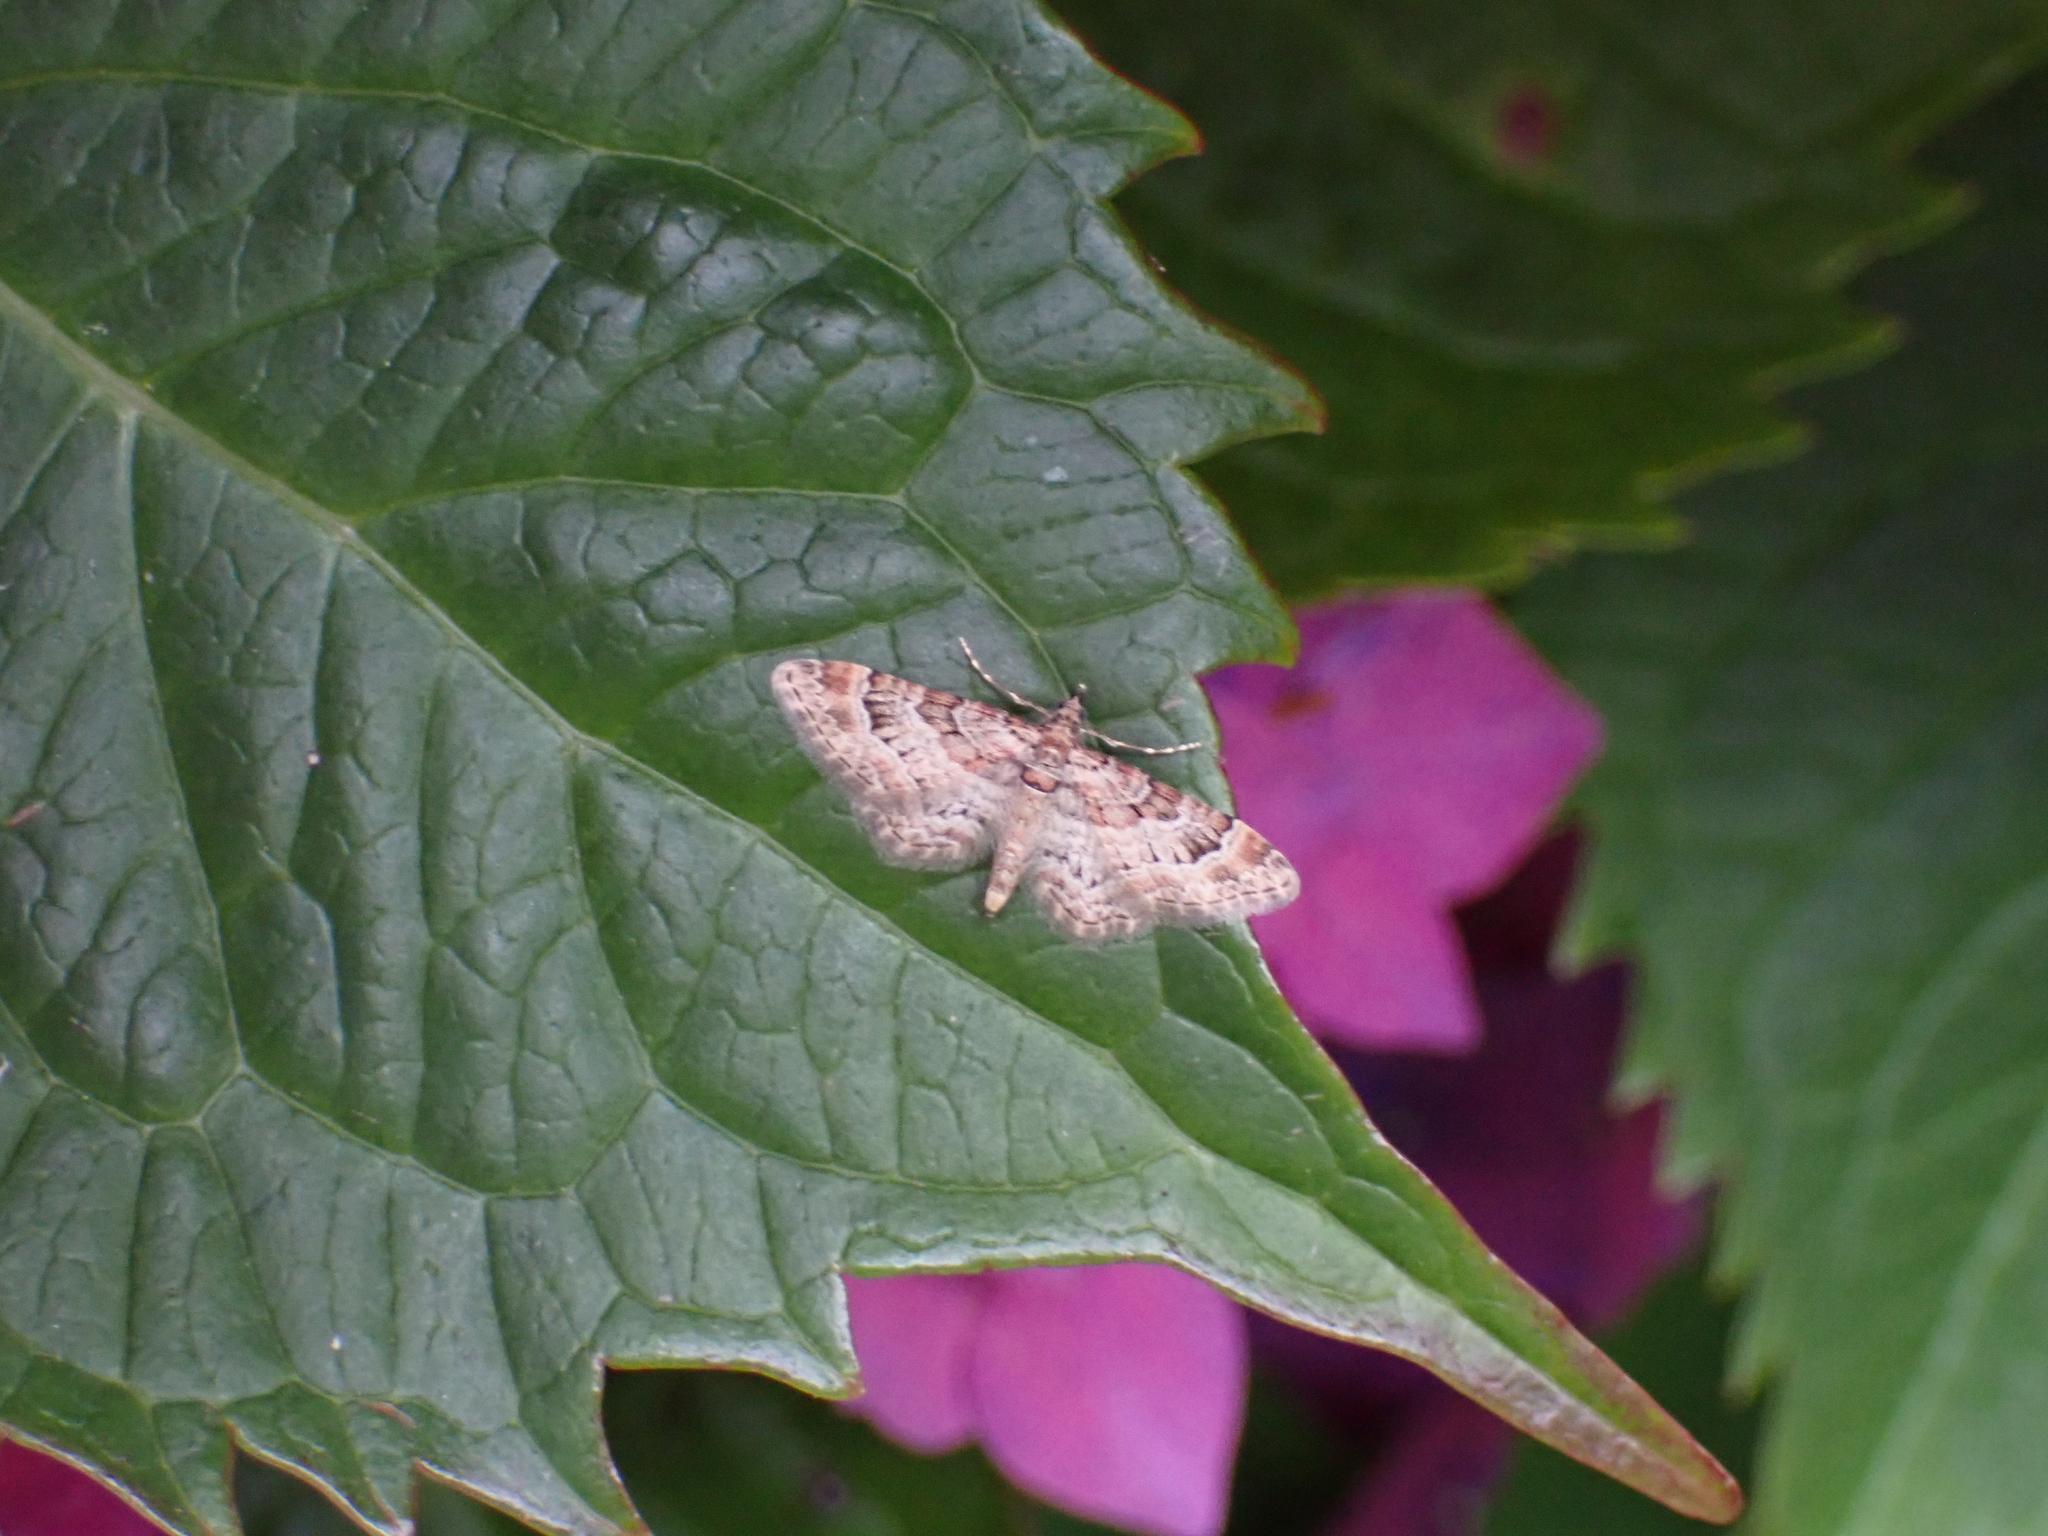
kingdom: Animalia
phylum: Arthropoda
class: Insecta
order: Lepidoptera
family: Geometridae
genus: Gymnoscelis
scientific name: Gymnoscelis rufifasciata
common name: Double-striped pug
